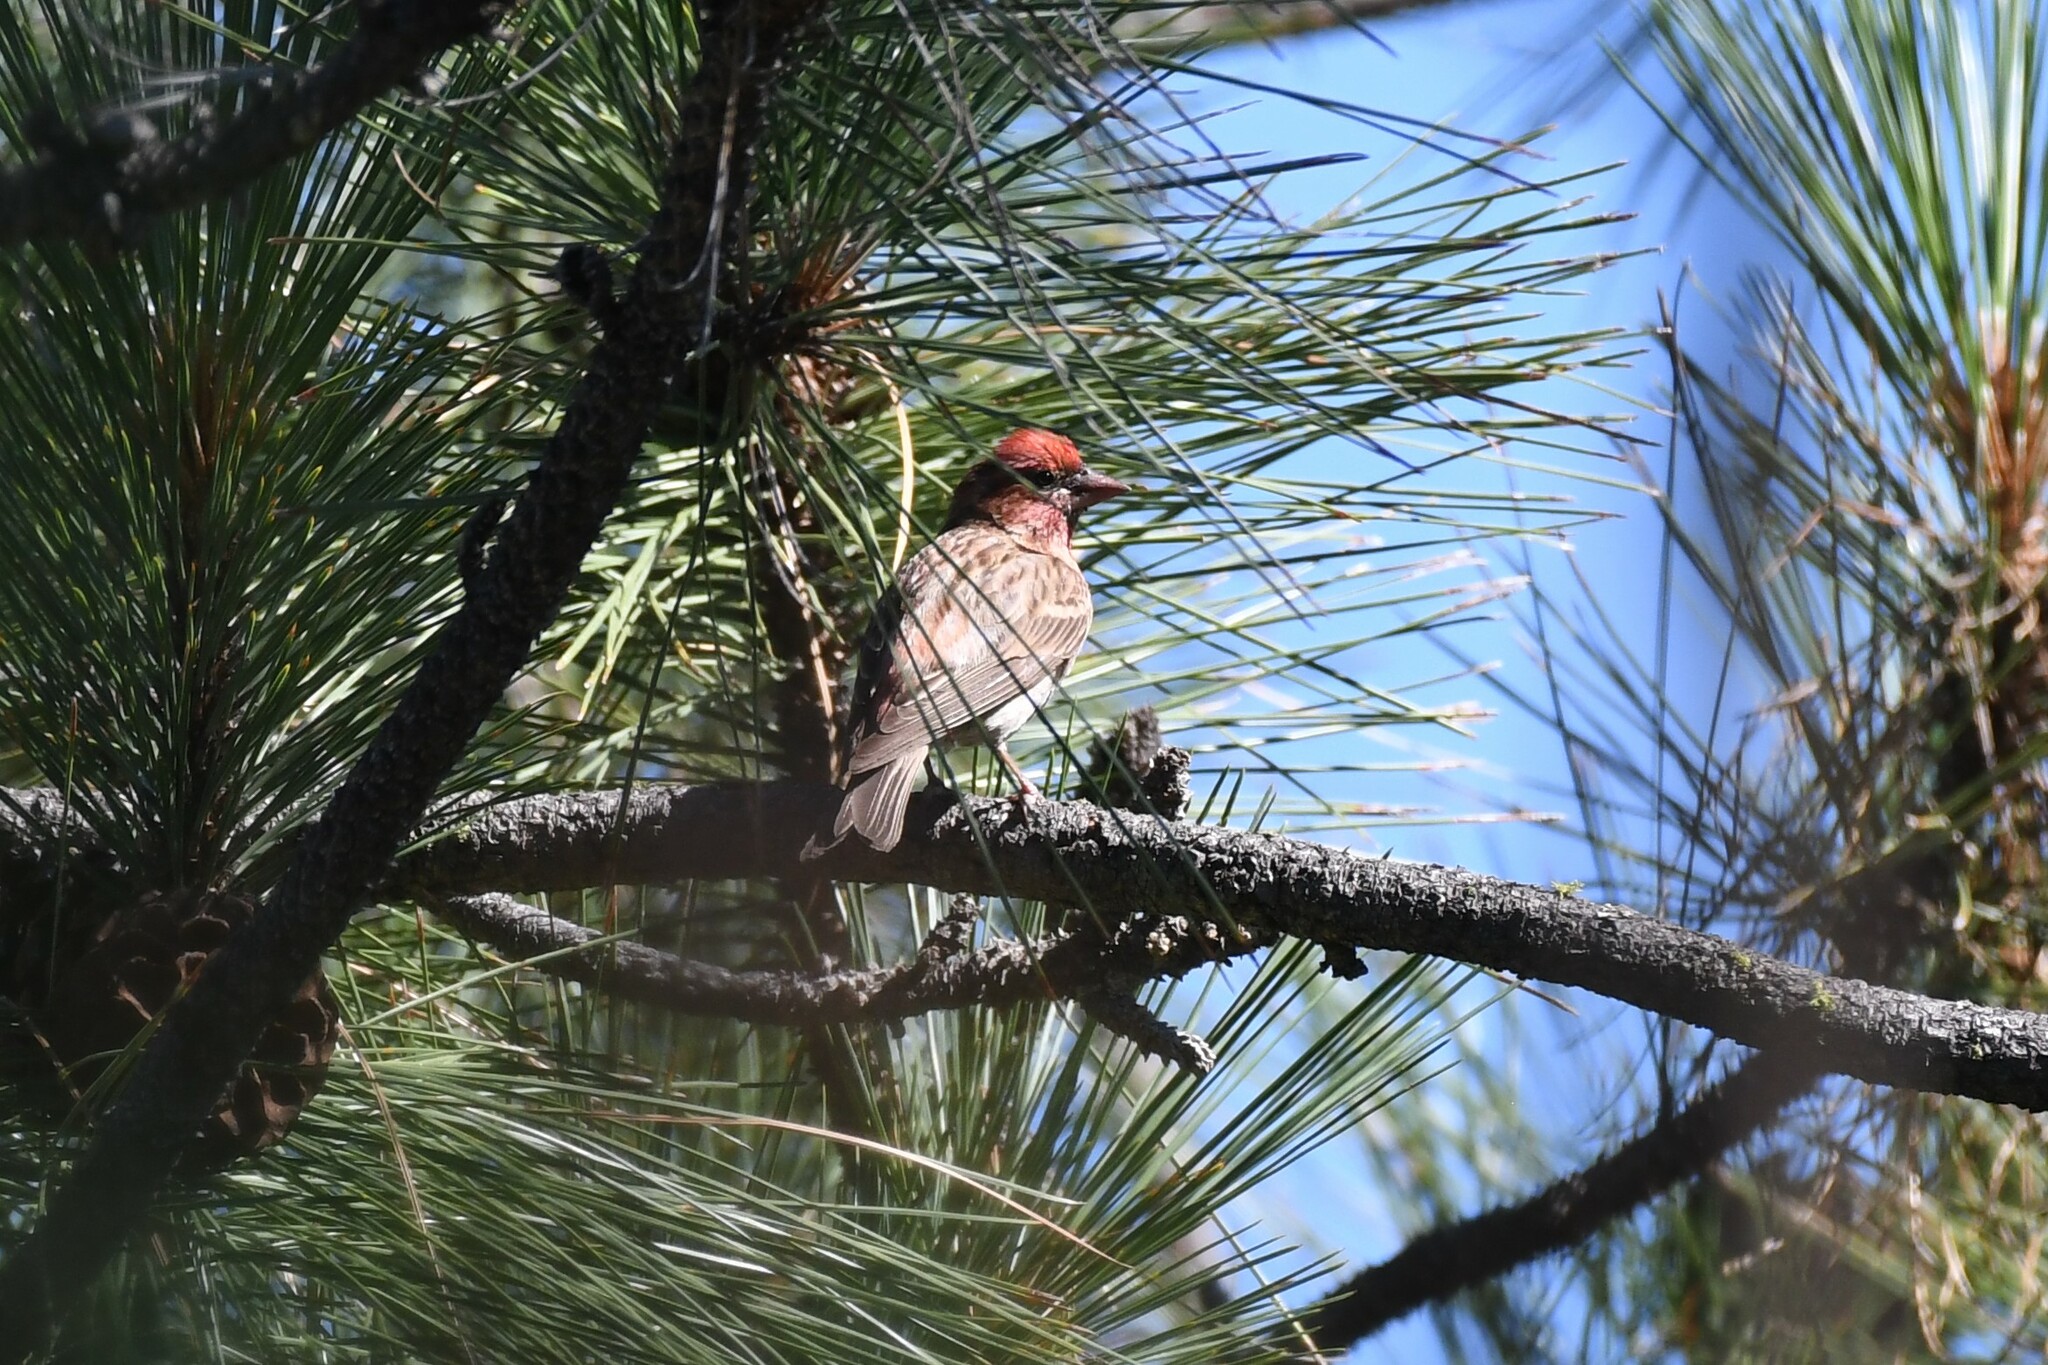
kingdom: Animalia
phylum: Chordata
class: Aves
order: Passeriformes
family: Fringillidae
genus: Haemorhous
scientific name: Haemorhous cassinii
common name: Cassin's finch
